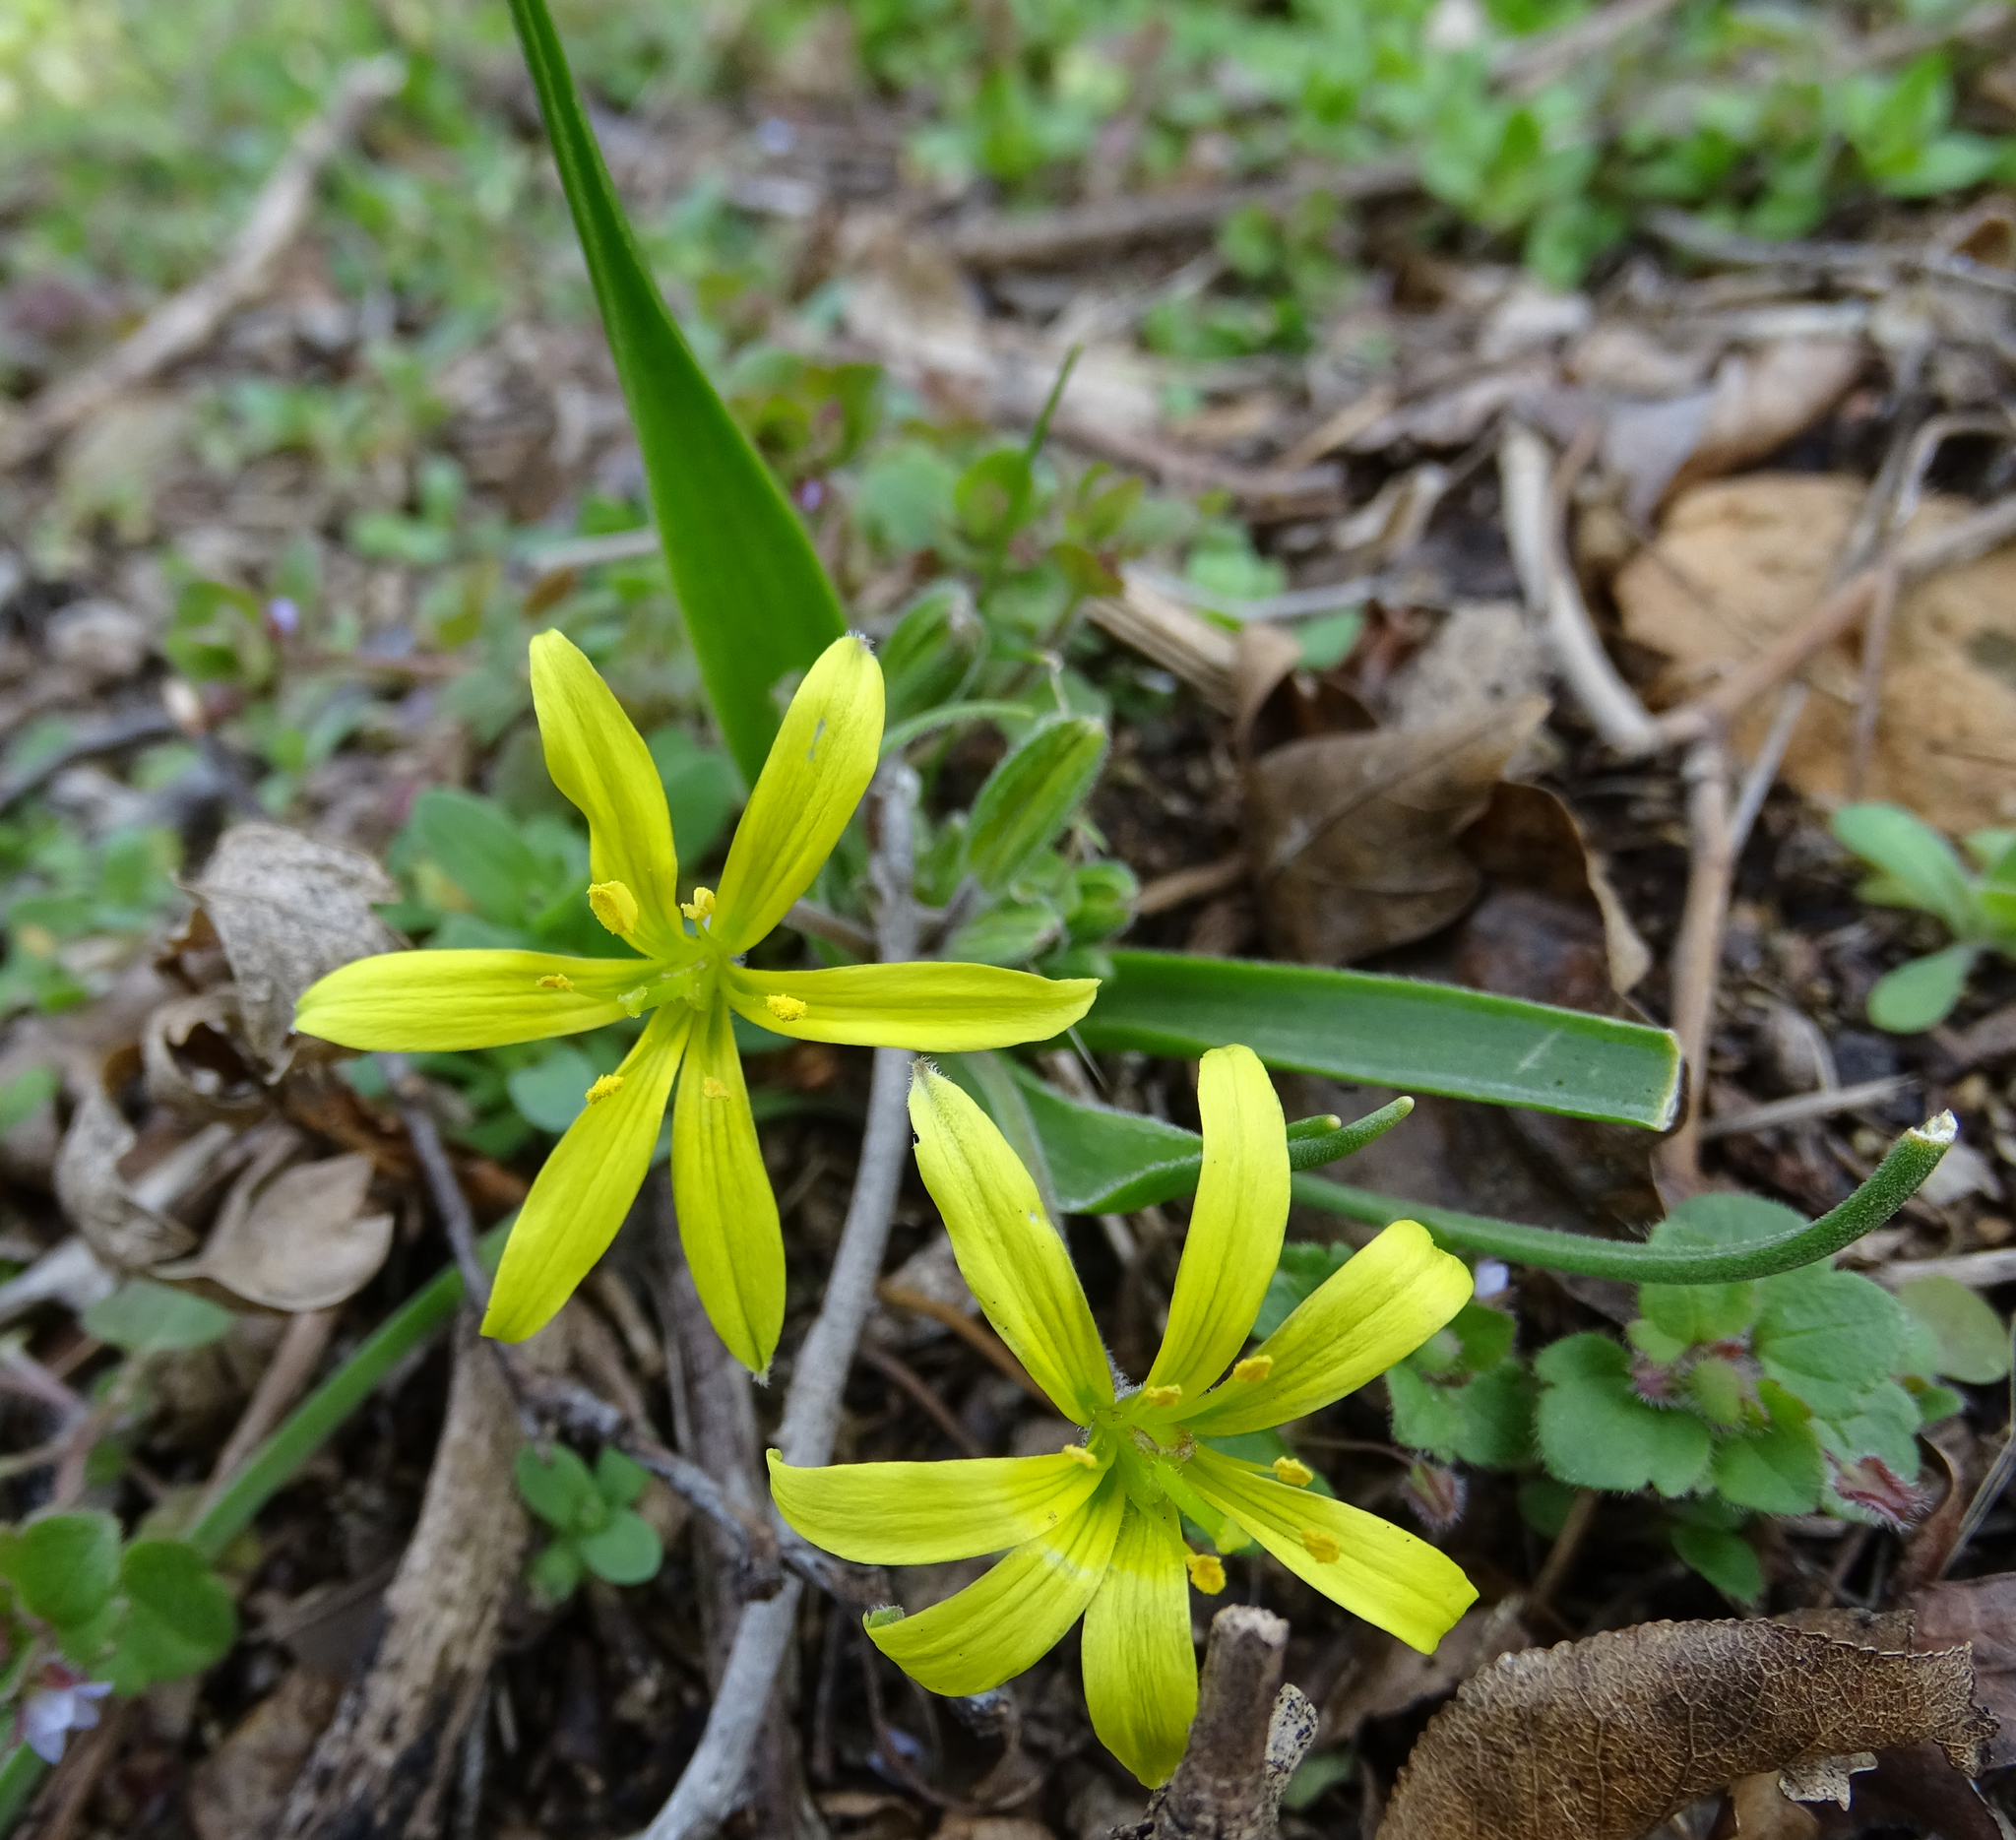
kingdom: Plantae
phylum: Tracheophyta
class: Liliopsida
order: Liliales
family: Liliaceae
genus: Gagea
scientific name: Gagea villosa
